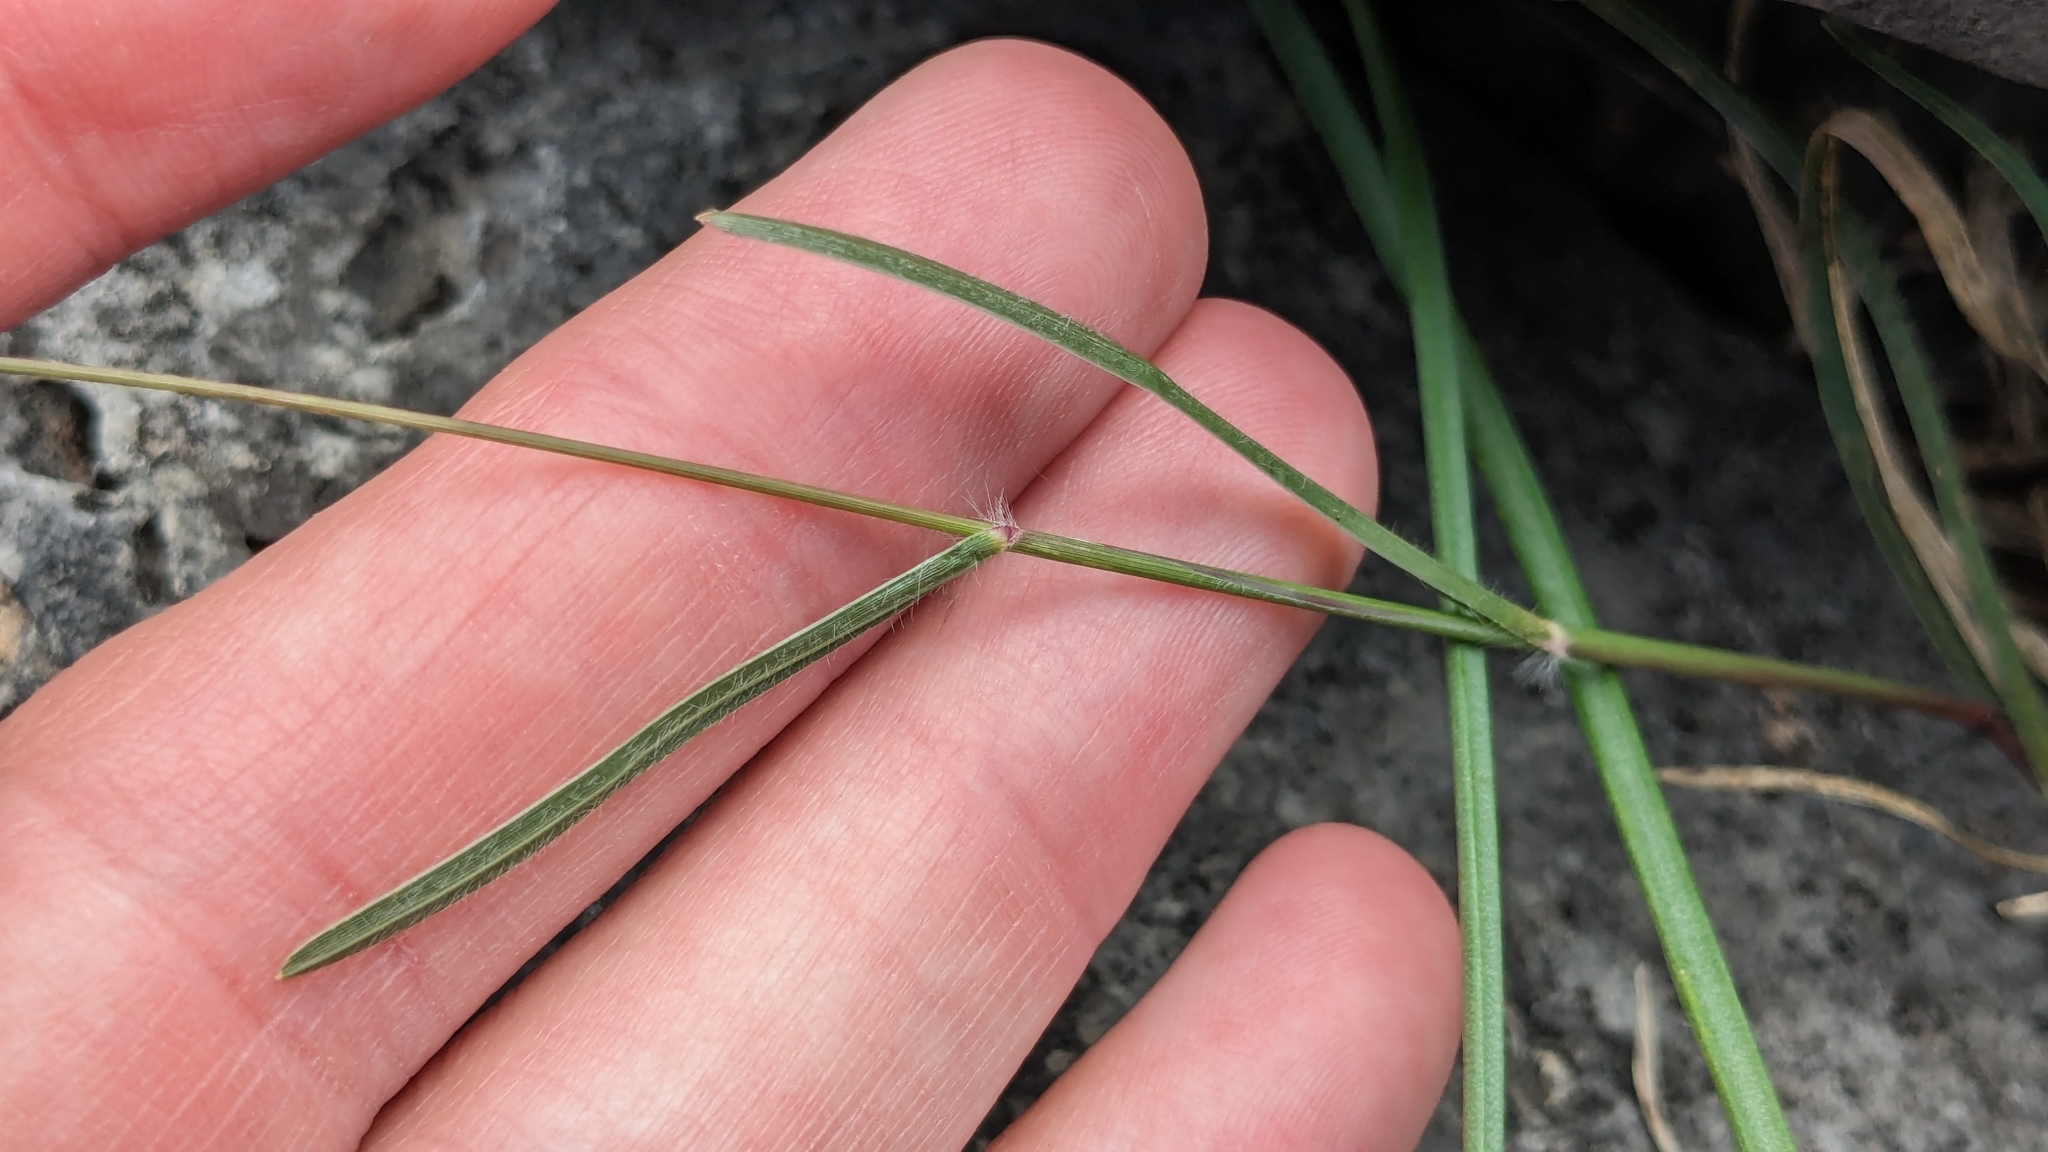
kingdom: Plantae
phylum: Tracheophyta
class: Liliopsida
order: Poales
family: Poaceae
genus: Erioneuron
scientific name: Erioneuron pilosum
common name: Hairy woolly grass
